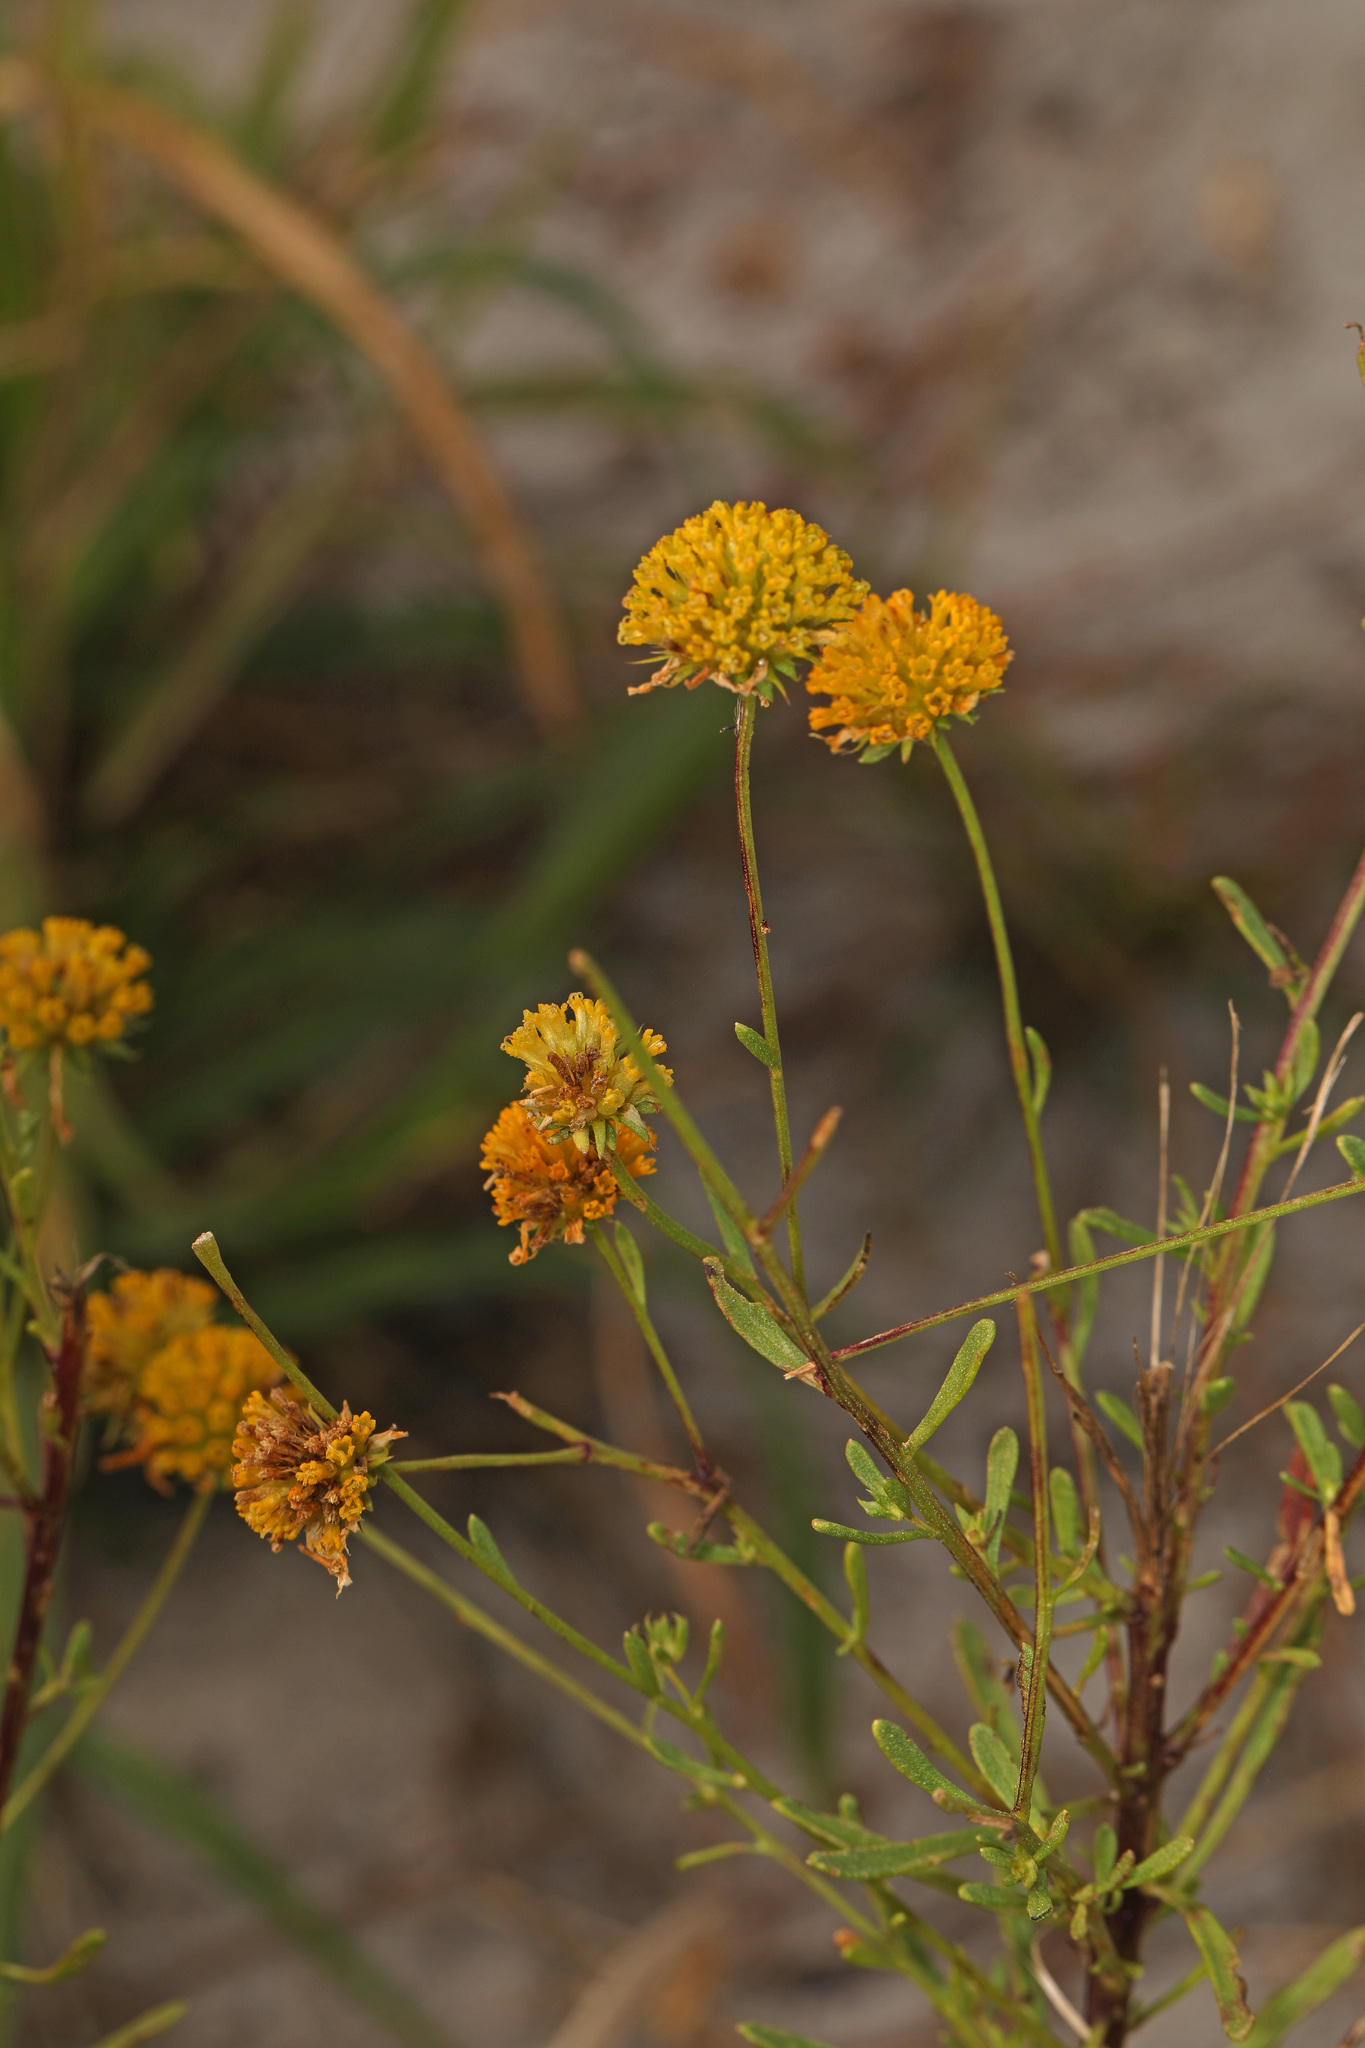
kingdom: Plantae
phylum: Tracheophyta
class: Magnoliopsida
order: Asterales
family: Asteraceae
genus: Balduina
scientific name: Balduina angustifolia
